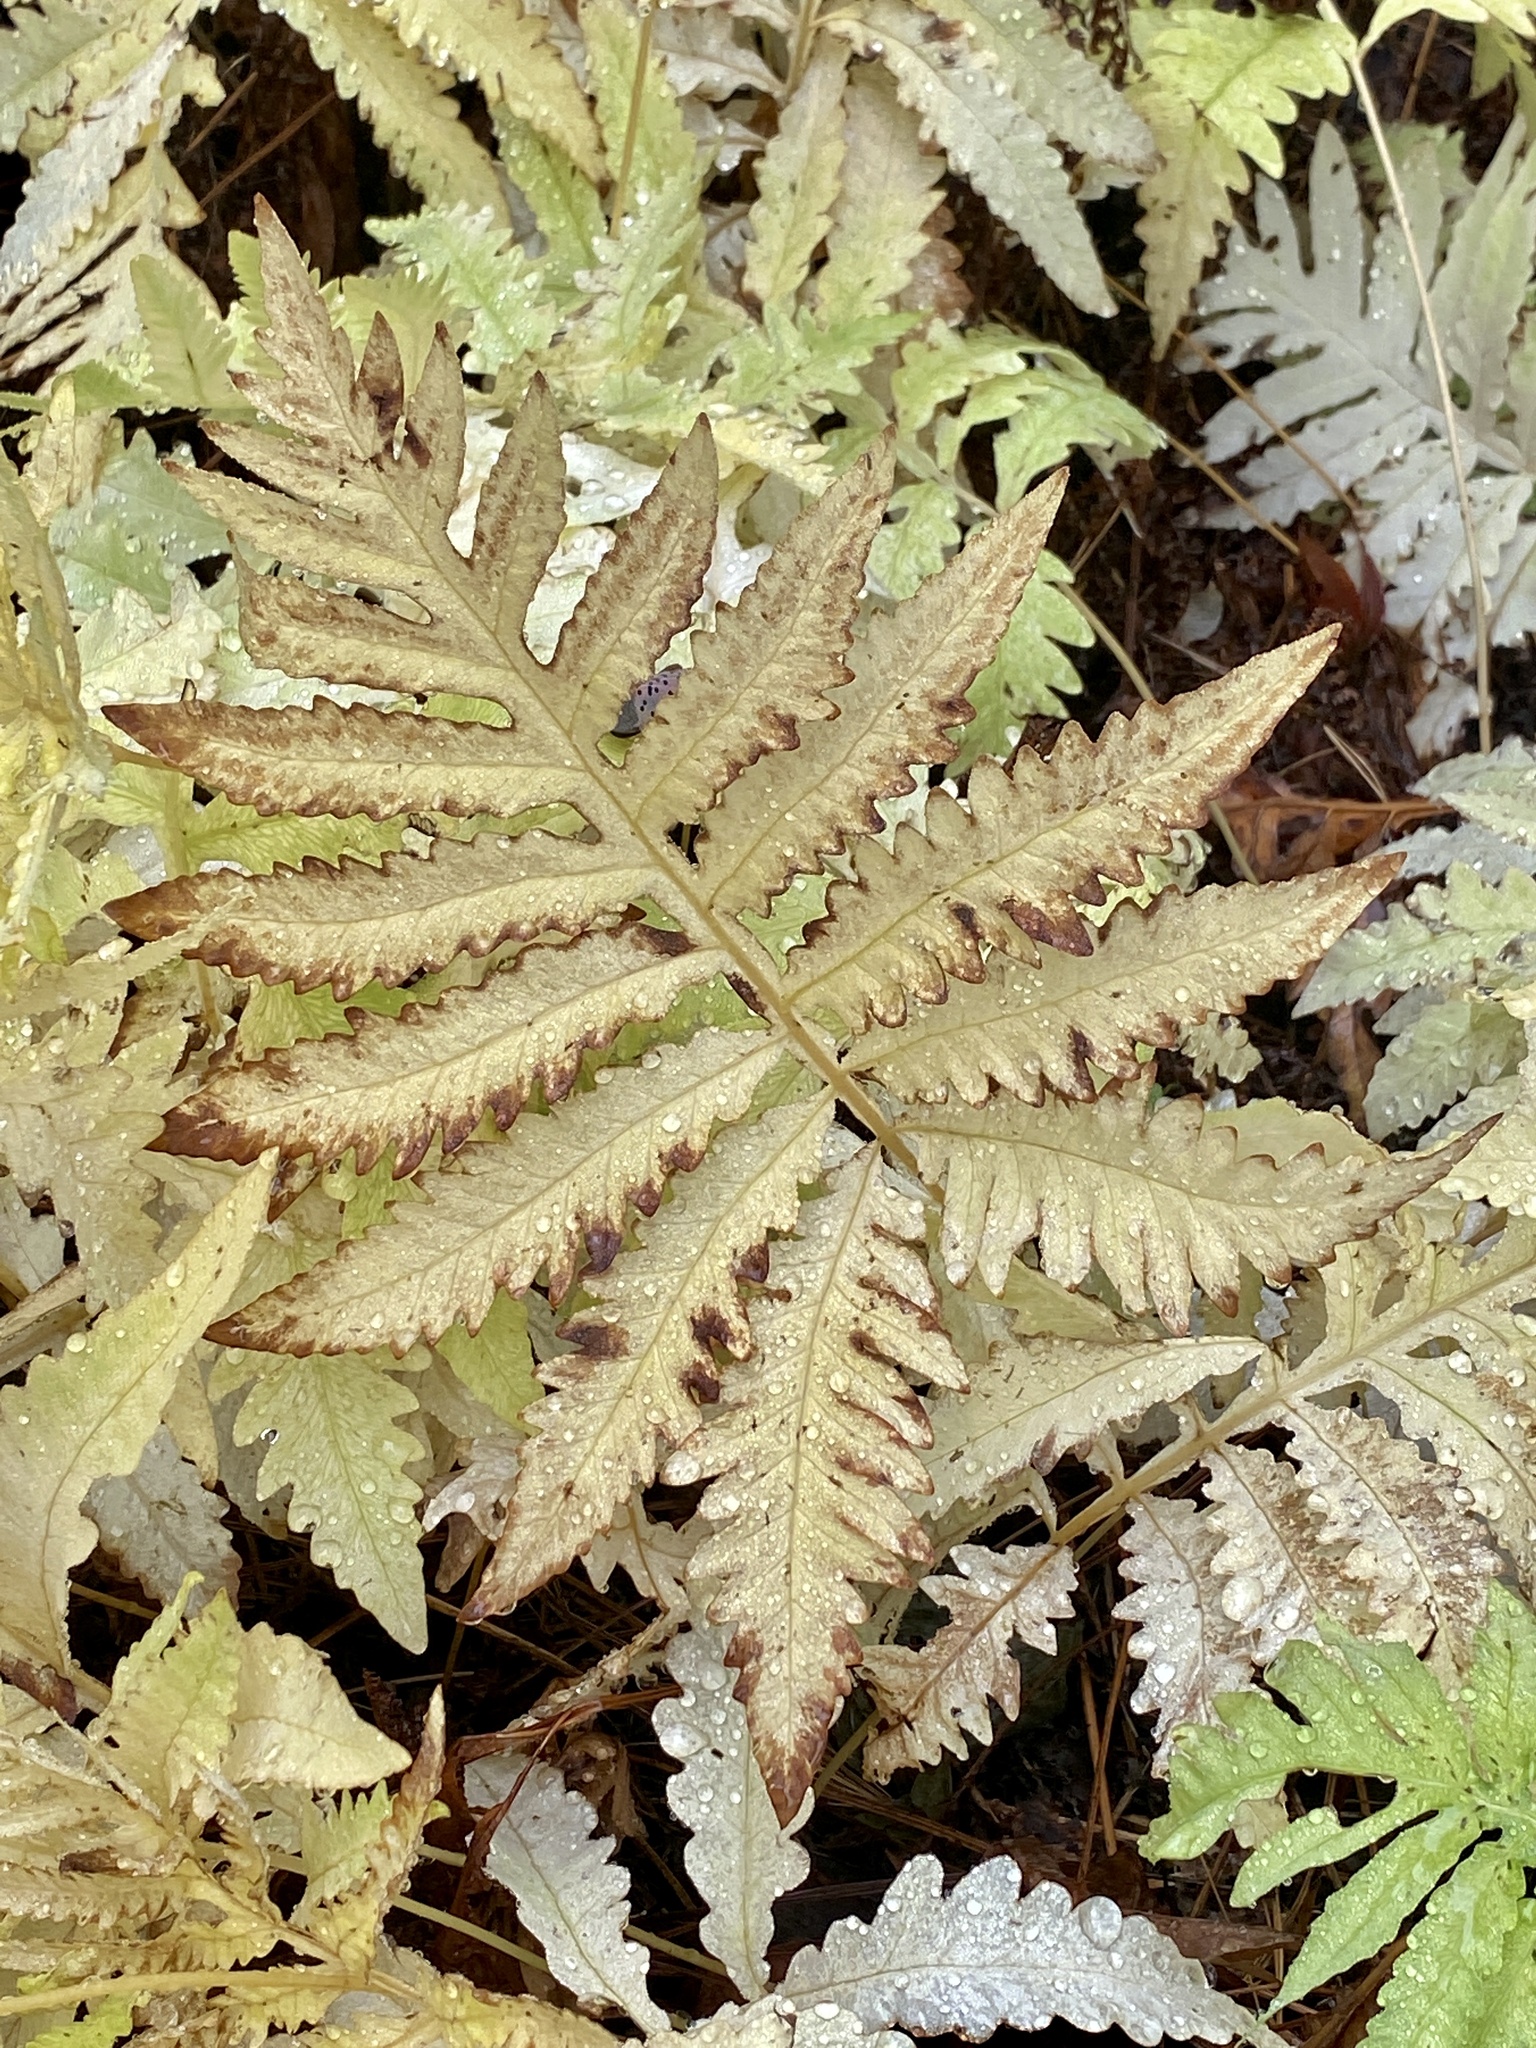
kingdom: Plantae
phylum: Tracheophyta
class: Polypodiopsida
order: Polypodiales
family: Onocleaceae
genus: Onoclea
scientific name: Onoclea sensibilis
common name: Sensitive fern
